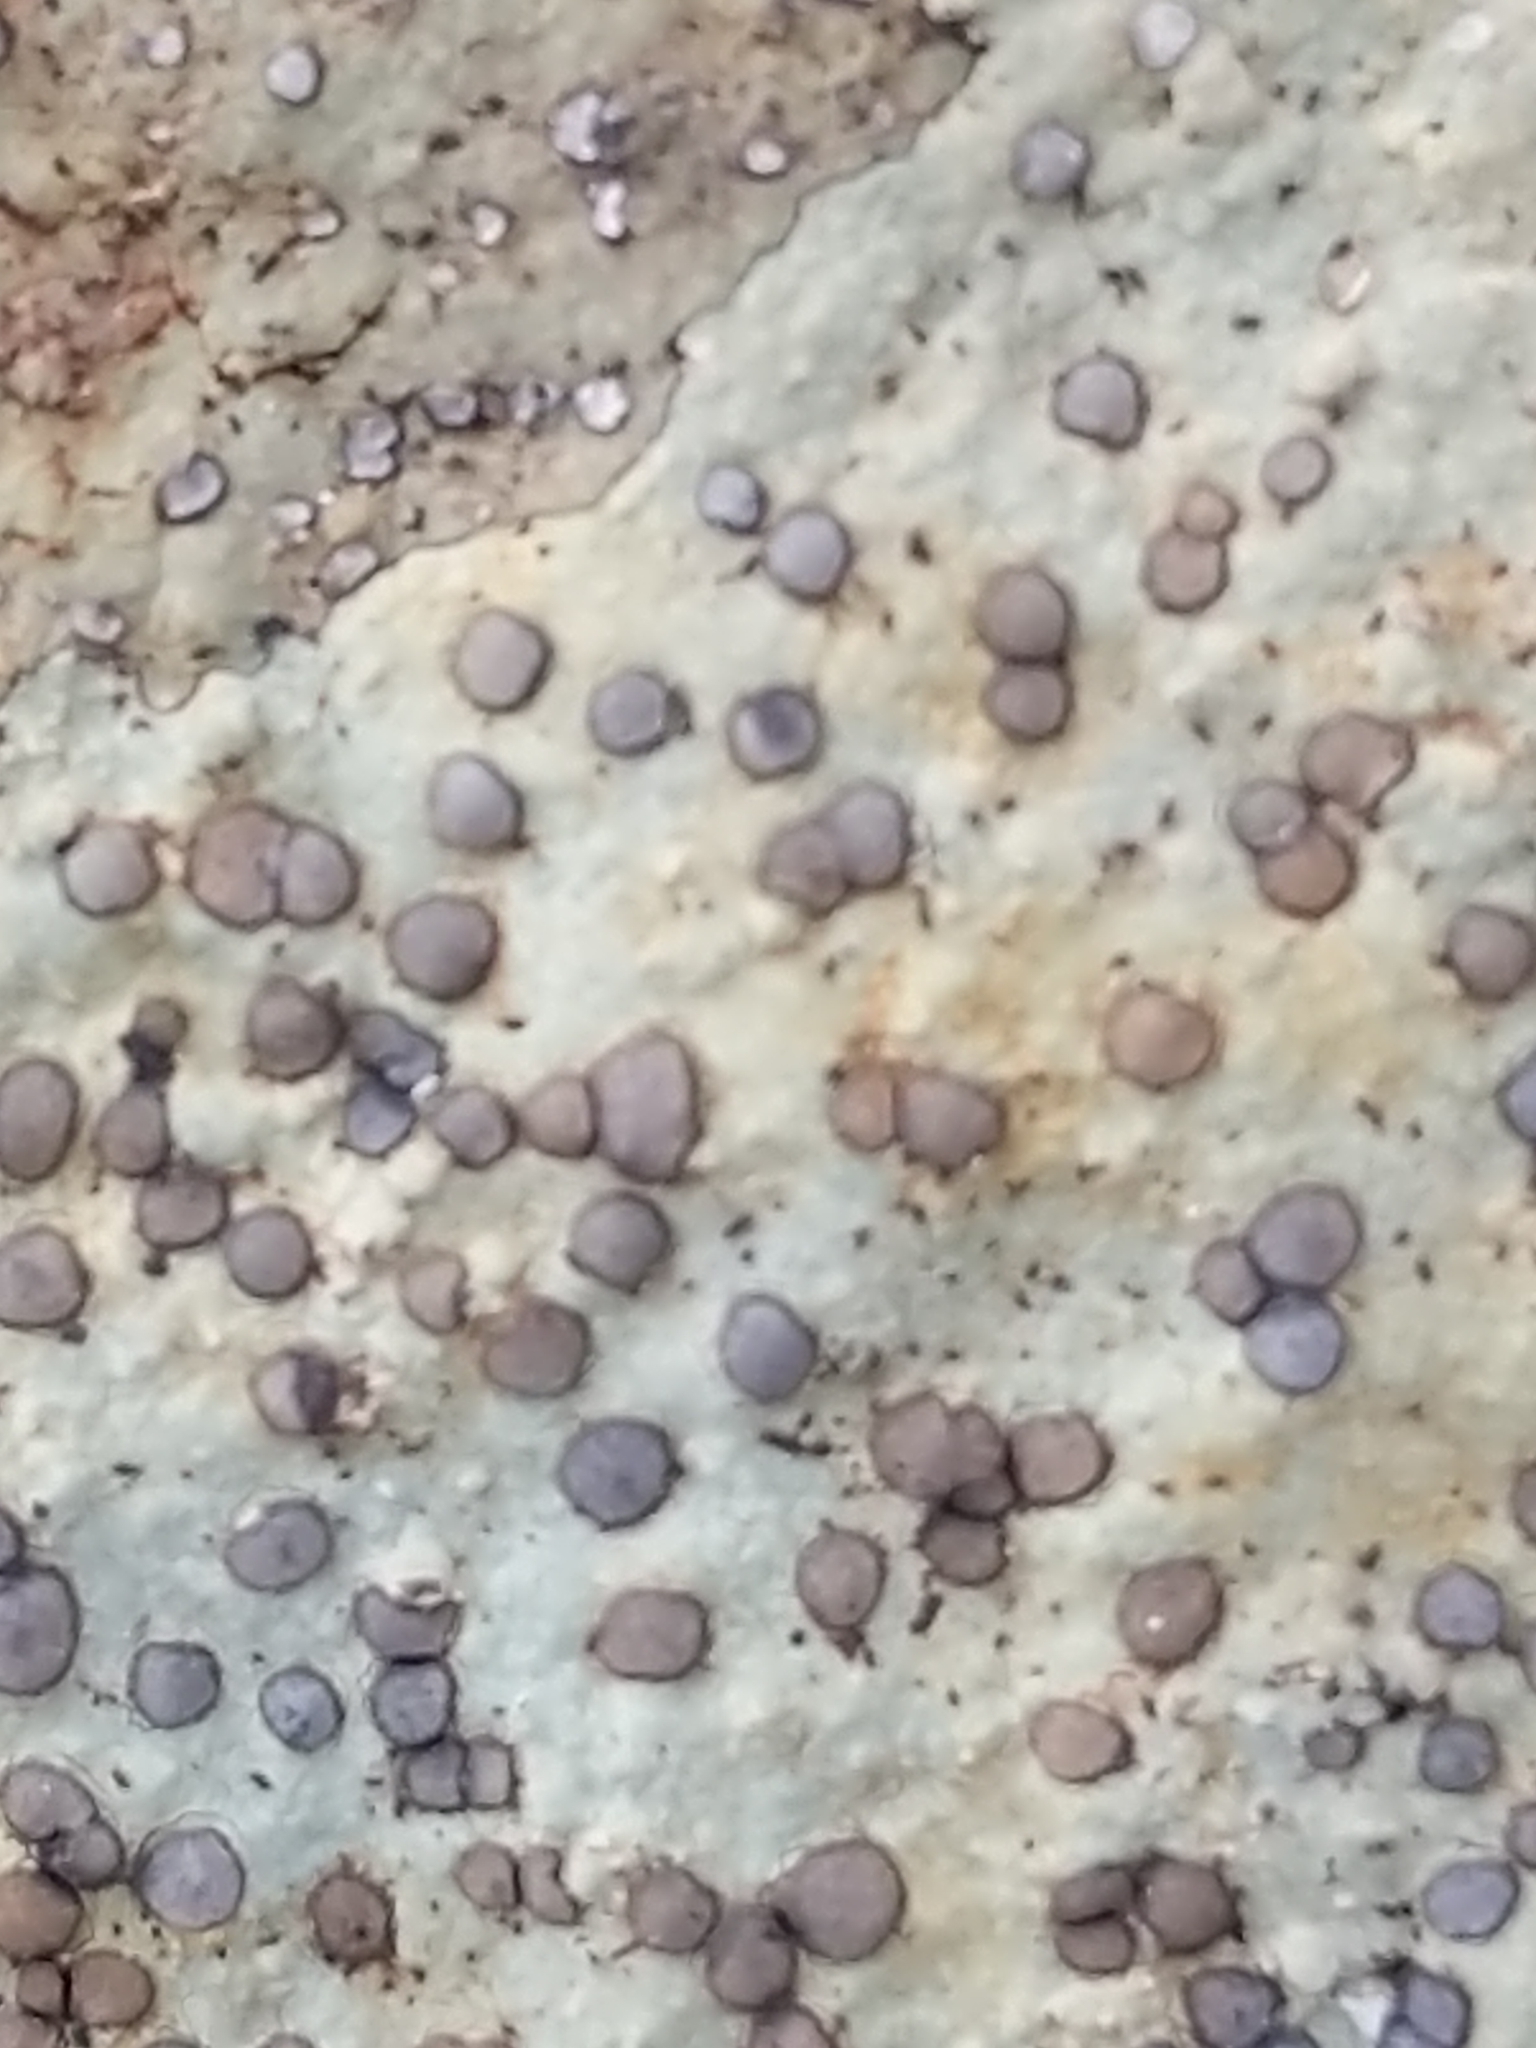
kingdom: Fungi
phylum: Ascomycota
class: Lecanoromycetes
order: Lecideales
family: Lecideaceae
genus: Porpidia
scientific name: Porpidia albocaerulescens
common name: Smokey-eyed boulder lichen
